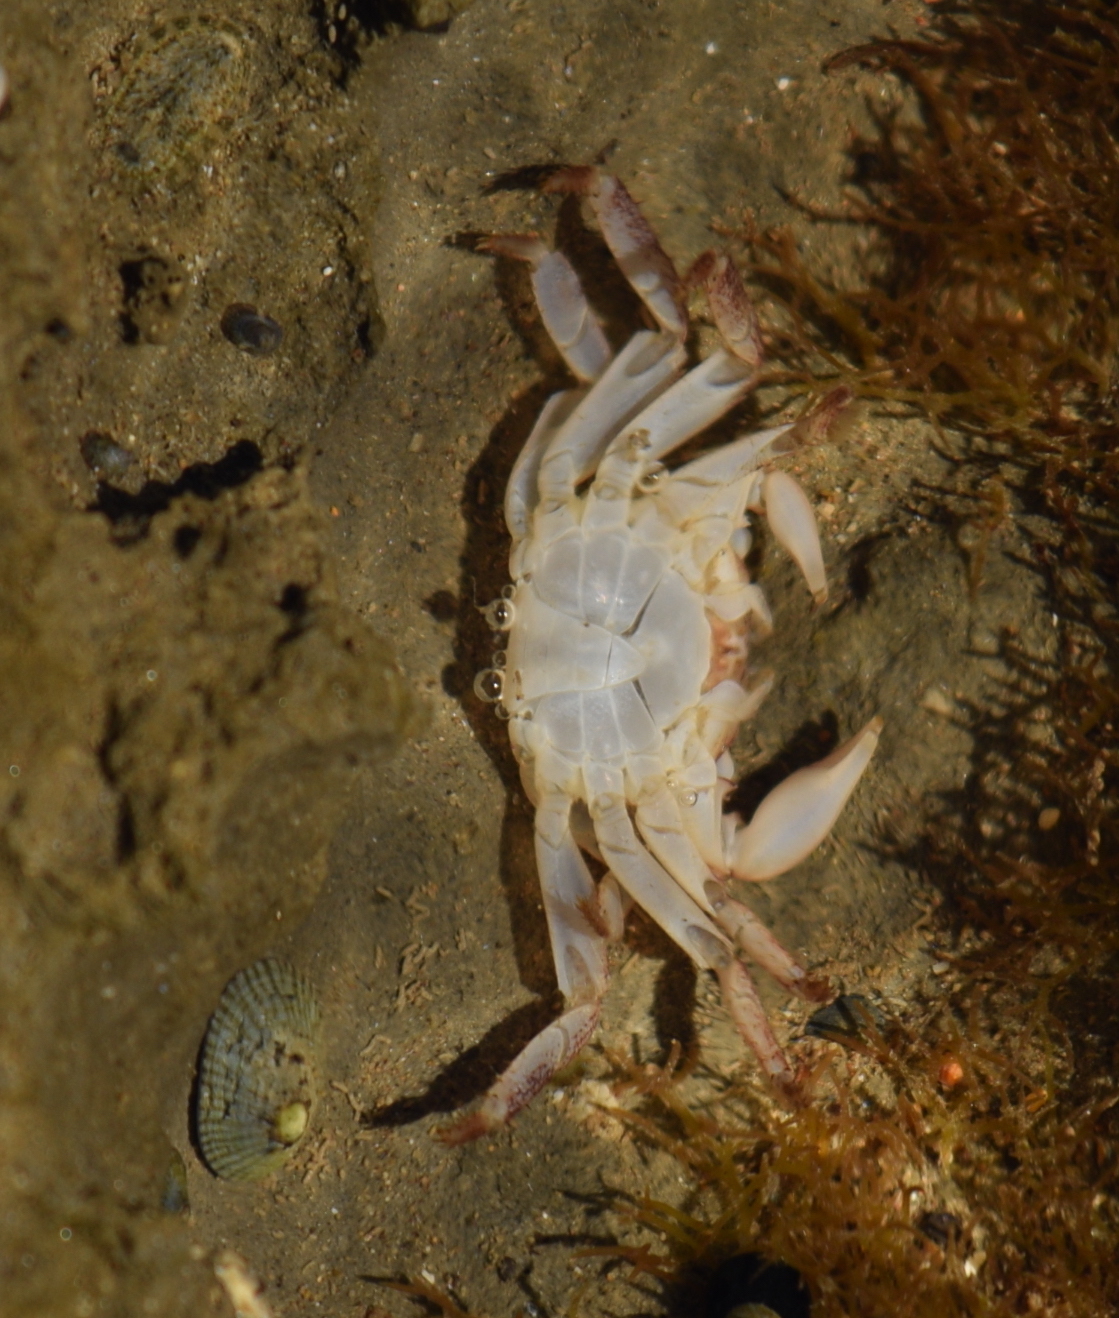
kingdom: Animalia
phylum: Arthropoda
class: Malacostraca
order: Decapoda
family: Grapsidae
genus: Pachygrapsus
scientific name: Pachygrapsus crassipes
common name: Striped shore crab
